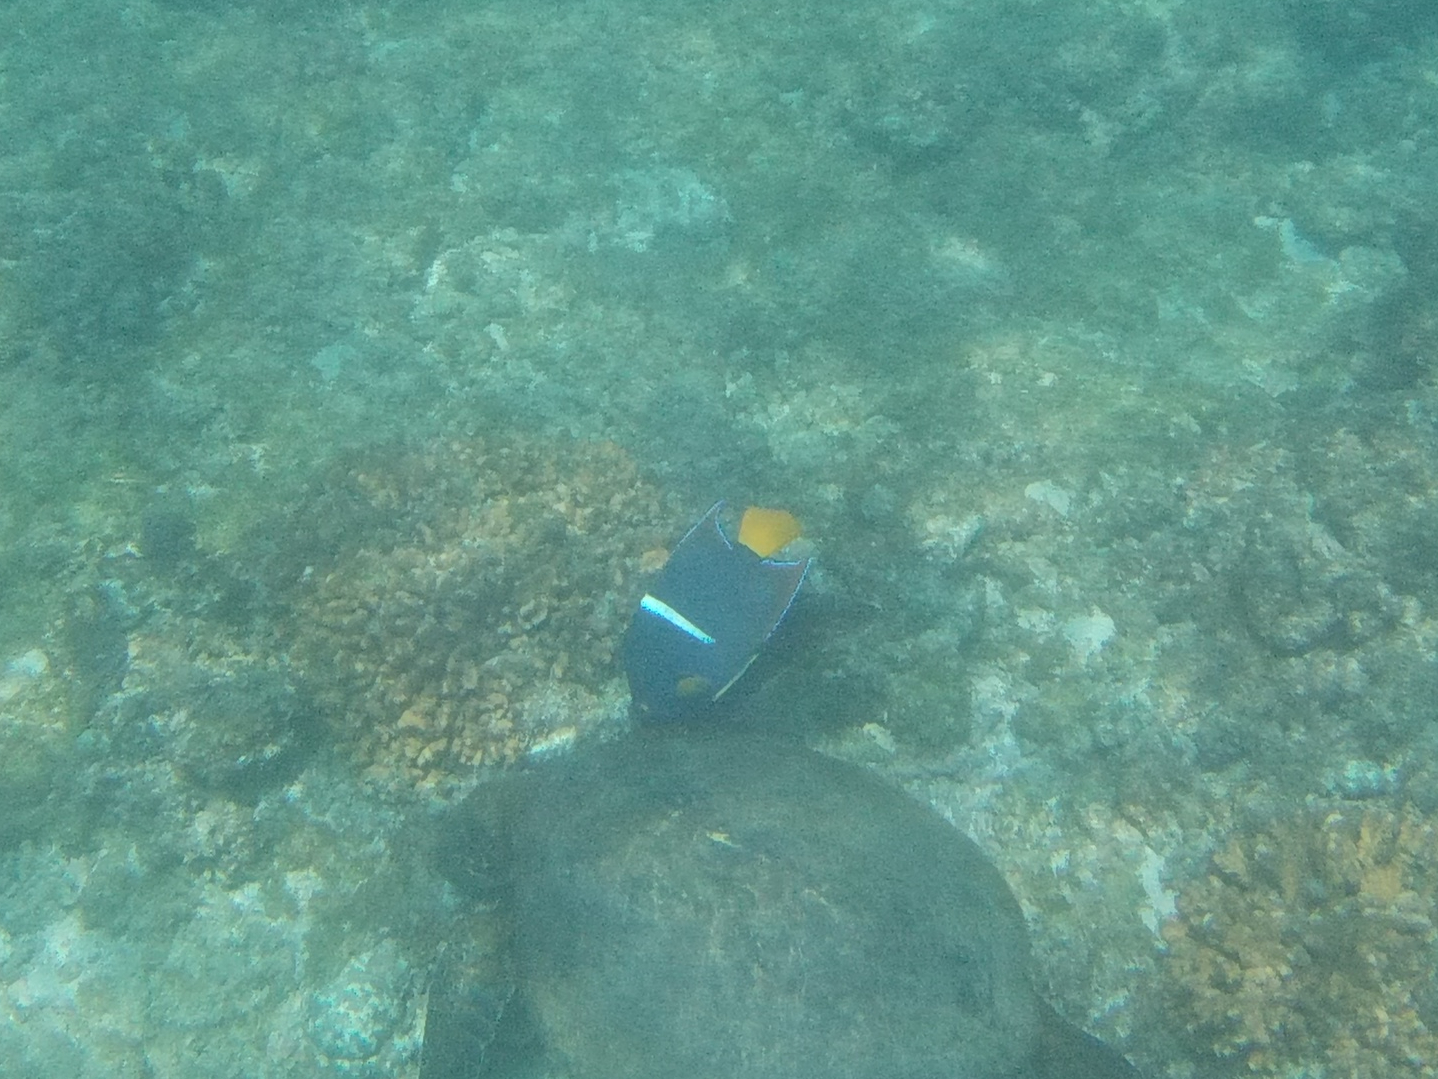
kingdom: Animalia
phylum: Chordata
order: Perciformes
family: Pomacanthidae
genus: Holacanthus
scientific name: Holacanthus passer
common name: King angelfish
